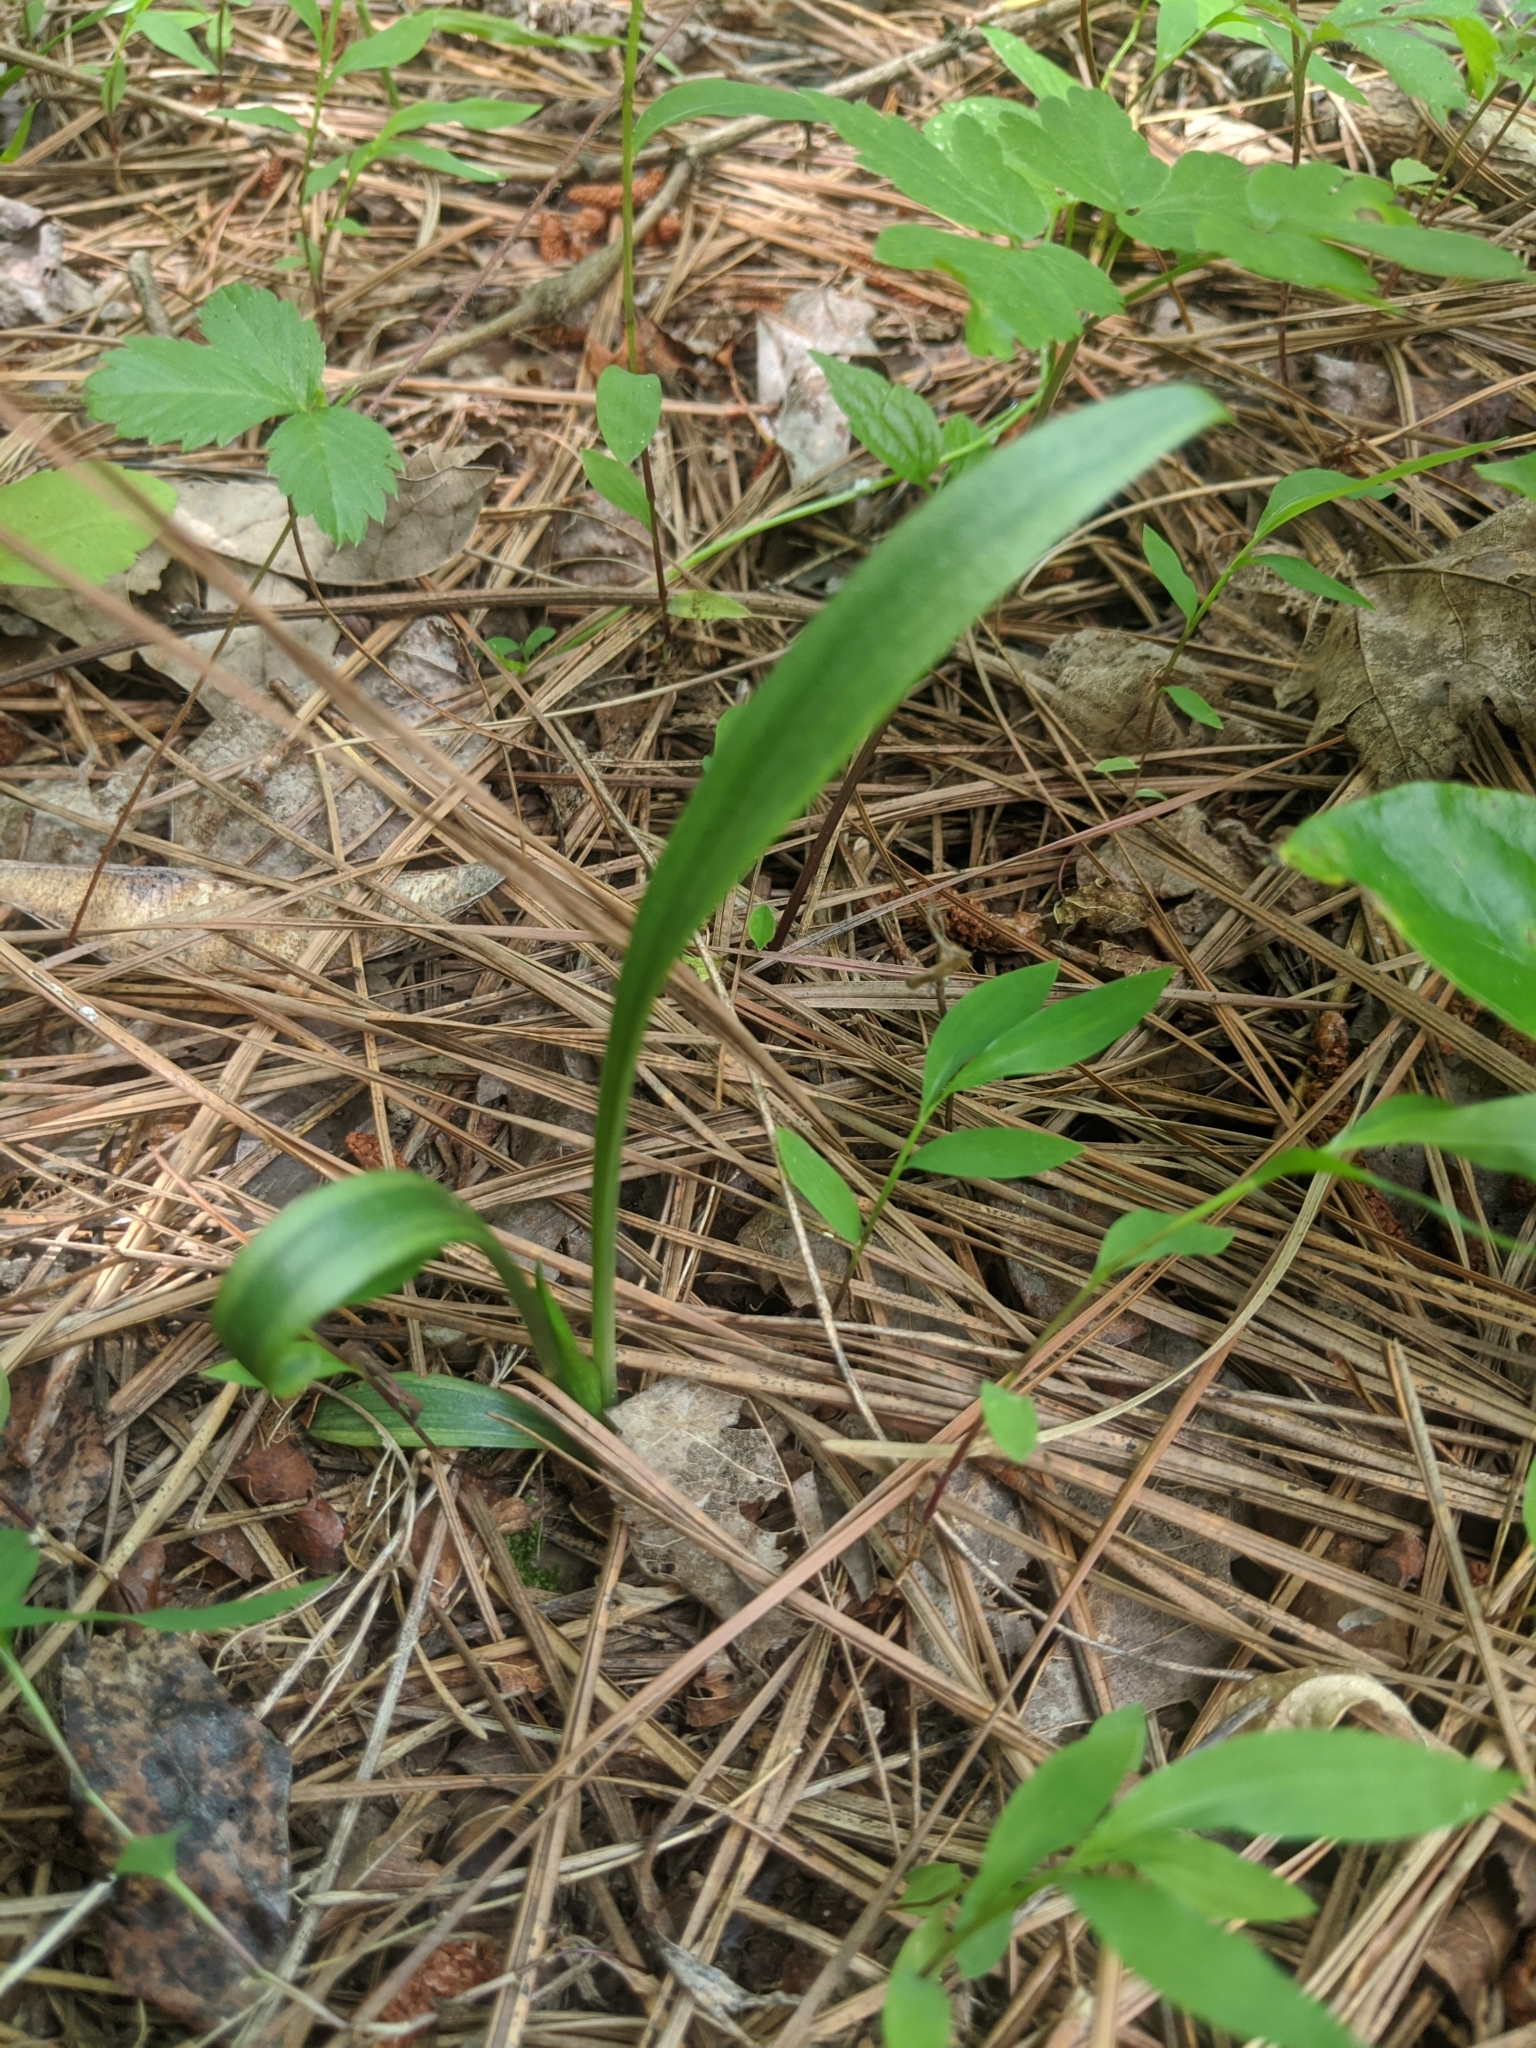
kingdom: Plantae
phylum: Tracheophyta
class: Liliopsida
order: Asparagales
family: Orchidaceae
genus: Platanthera
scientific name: Platanthera lacera
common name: Green fringed orchid
